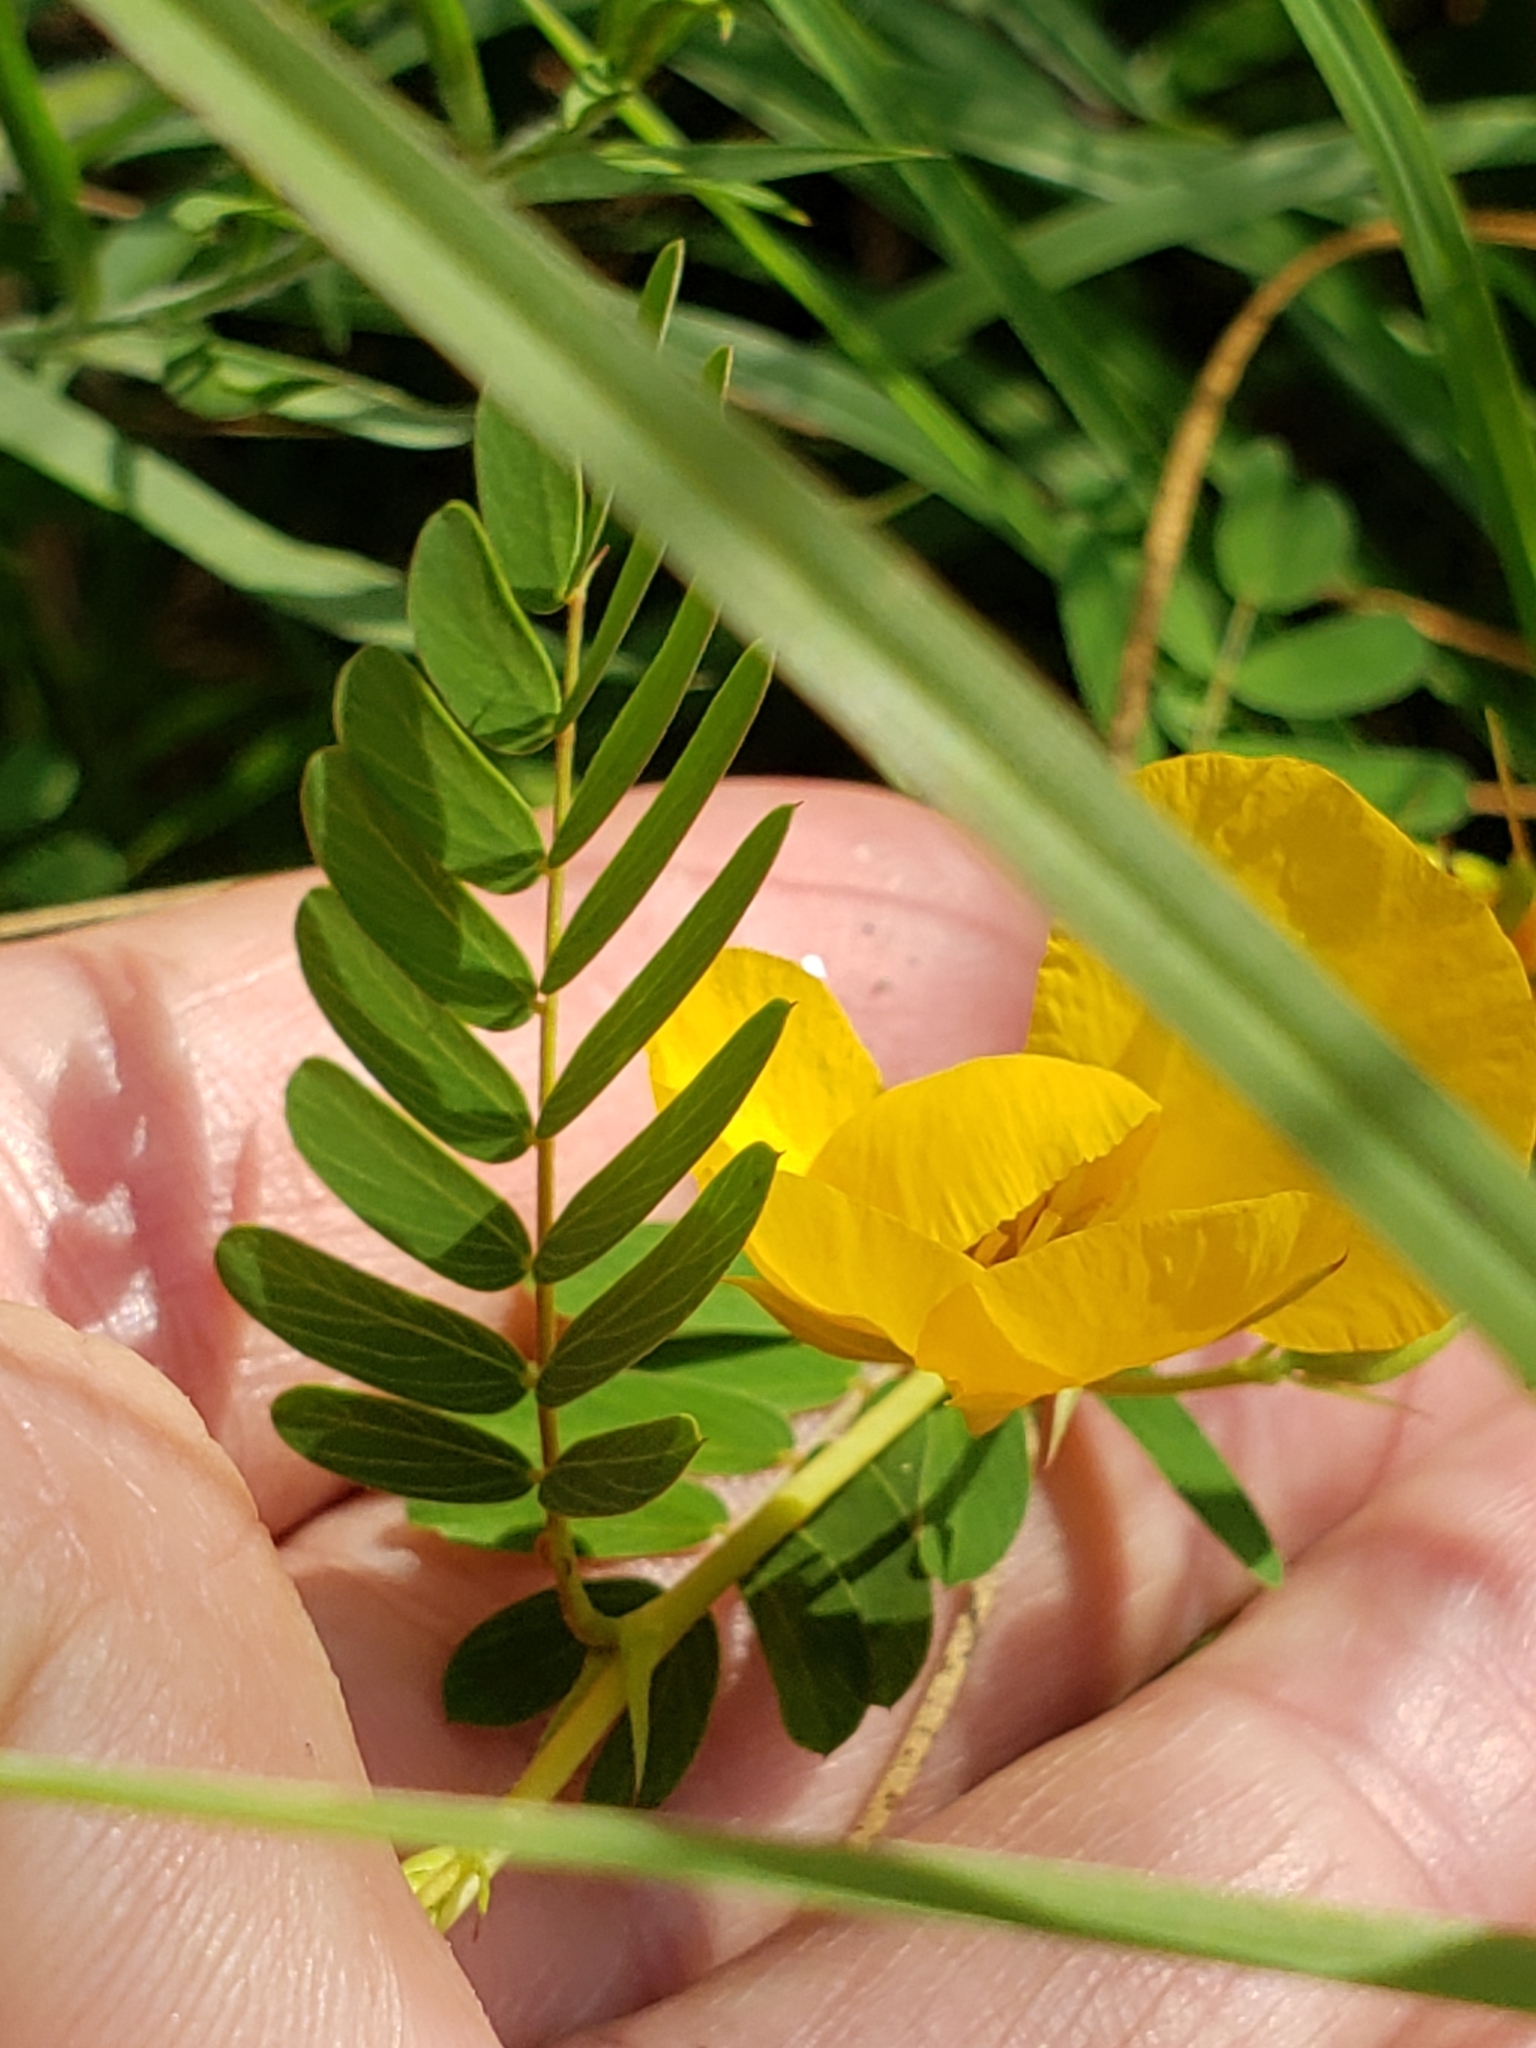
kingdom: Plantae
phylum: Tracheophyta
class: Magnoliopsida
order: Fabales
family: Fabaceae
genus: Chamaecrista
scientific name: Chamaecrista fasciculata
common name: Golden cassia
